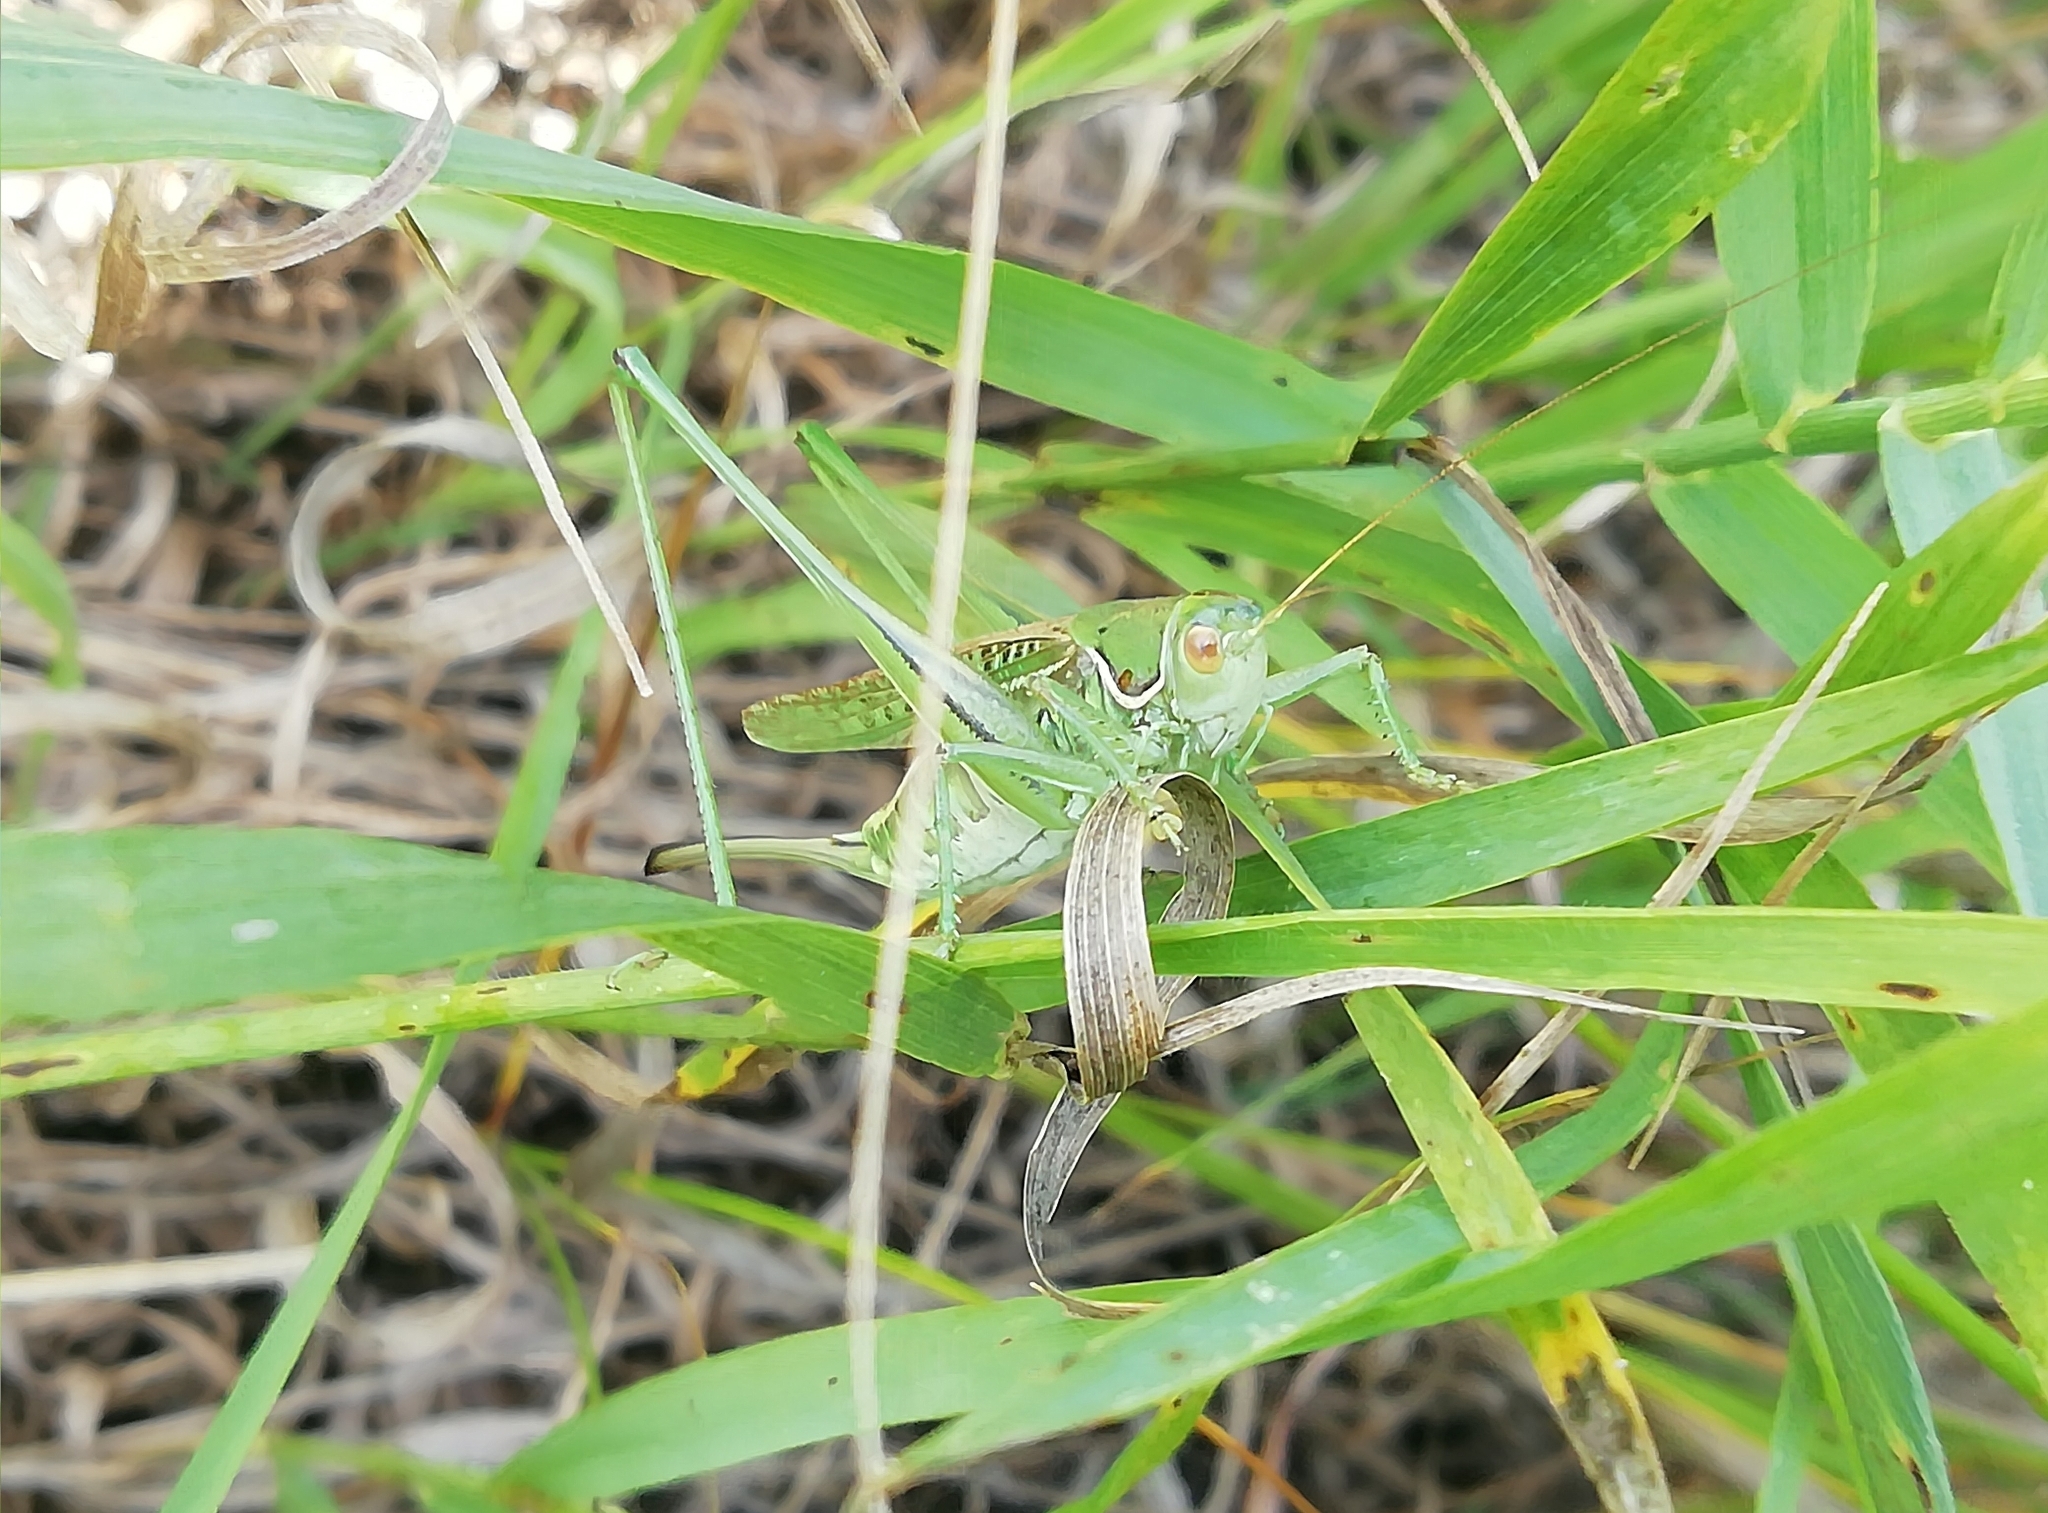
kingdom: Animalia
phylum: Arthropoda
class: Insecta
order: Orthoptera
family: Tettigoniidae
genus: Gampsocleis
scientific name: Gampsocleis glabra
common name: Heath bushcricket
